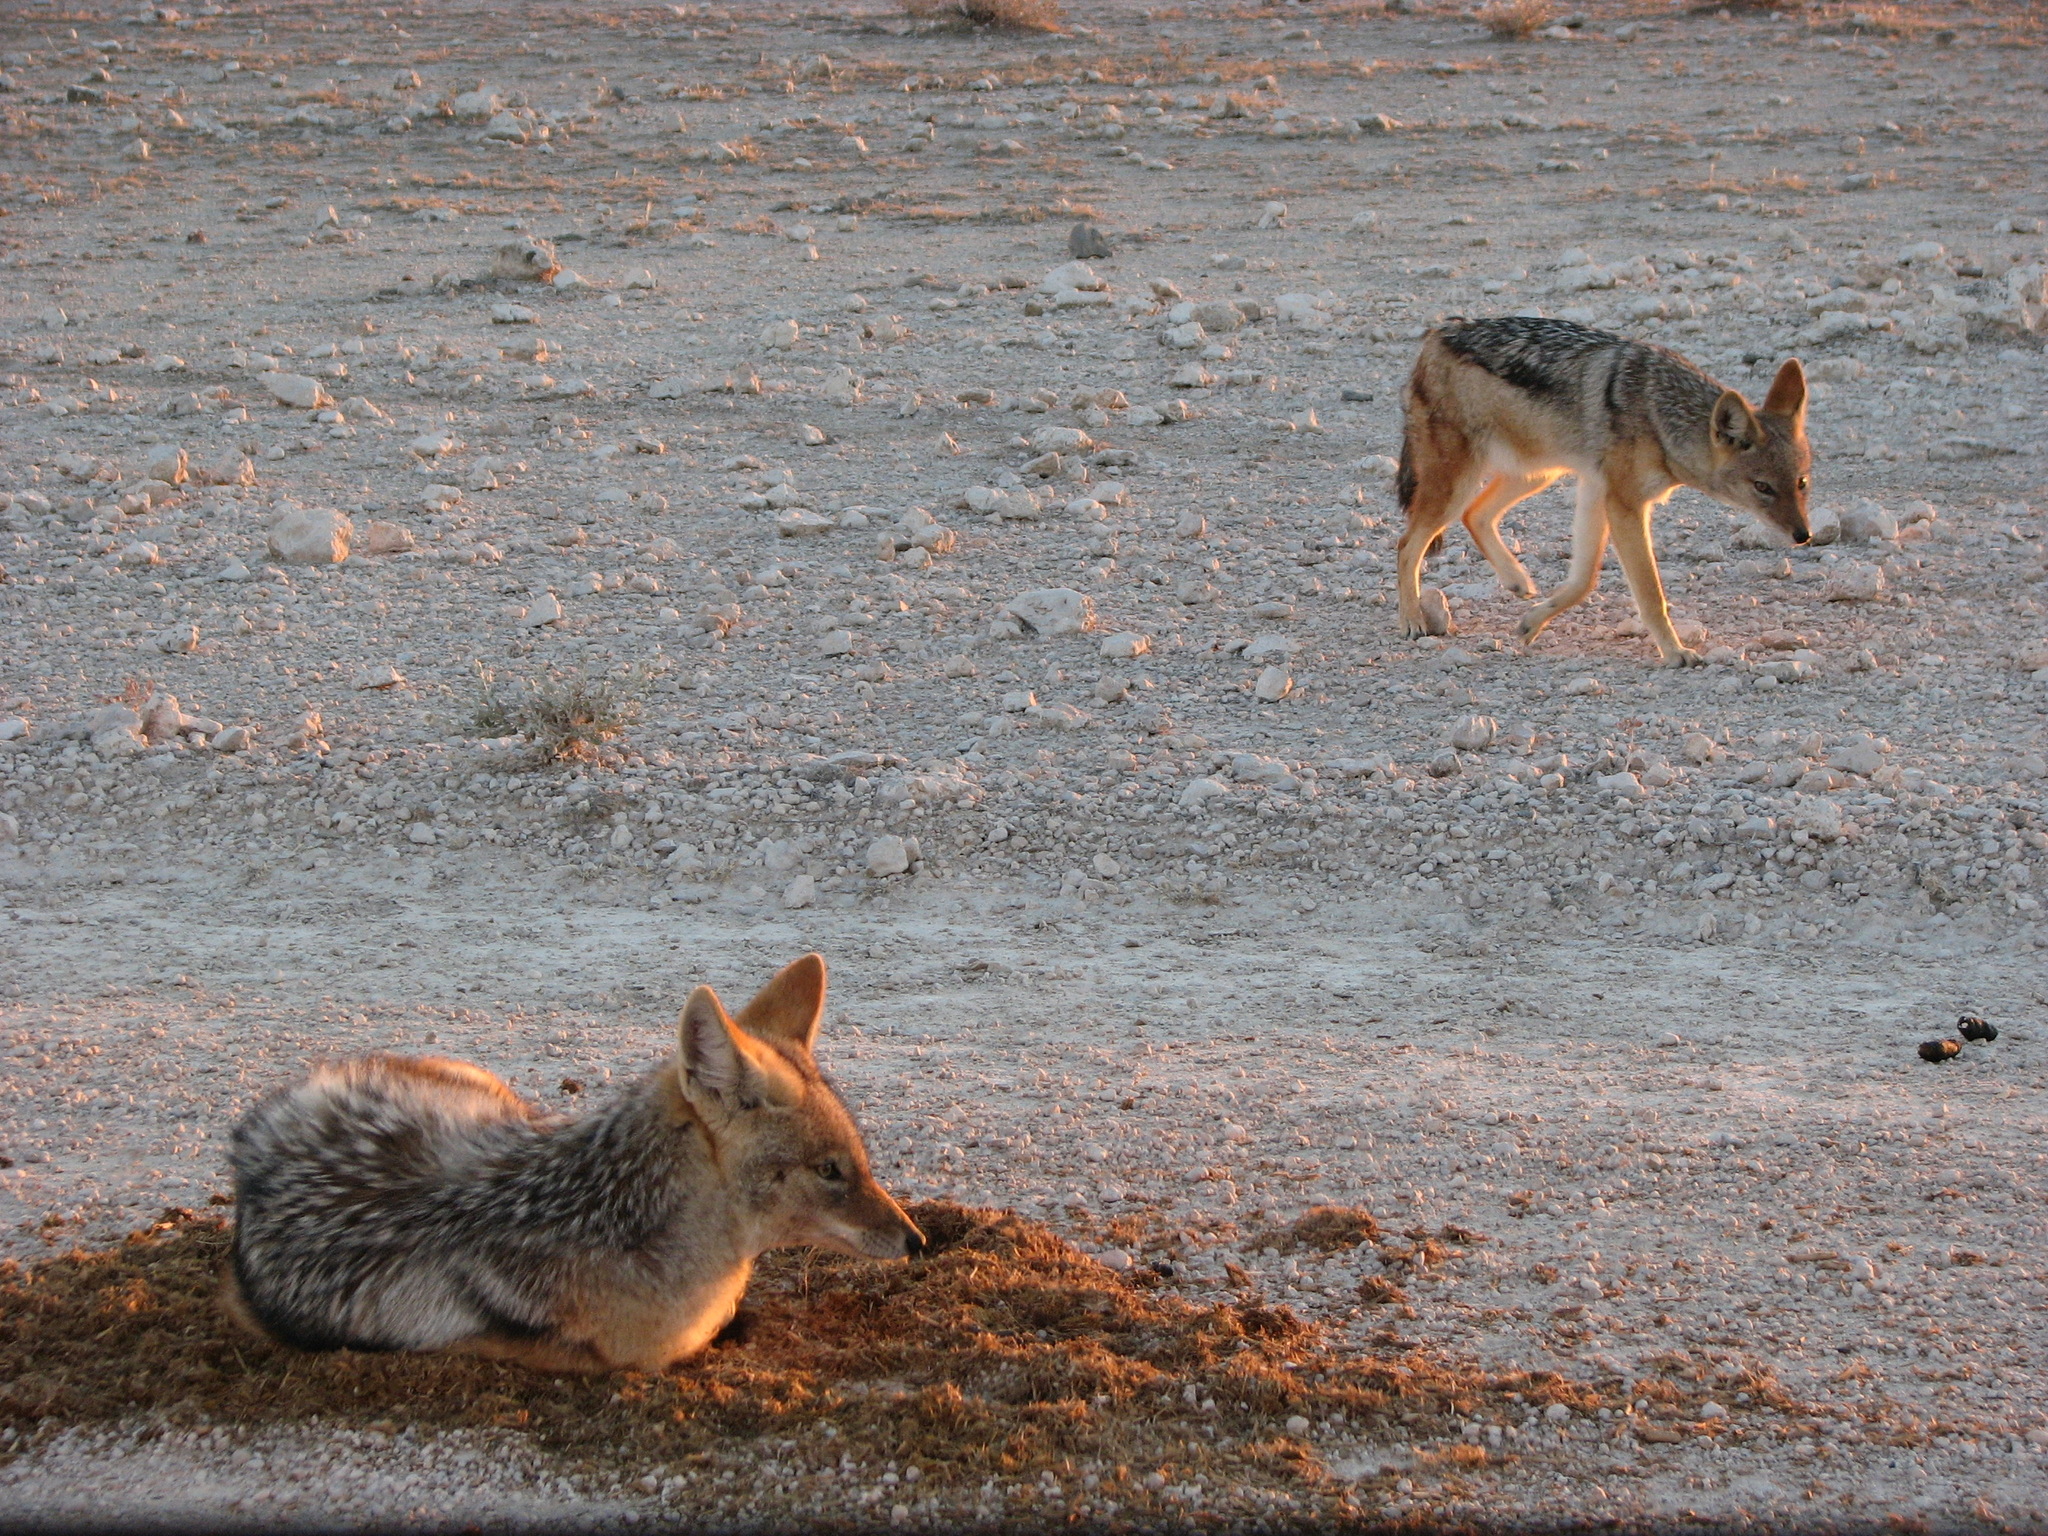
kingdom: Animalia
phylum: Chordata
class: Mammalia
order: Carnivora
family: Canidae
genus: Lupulella
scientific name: Lupulella
